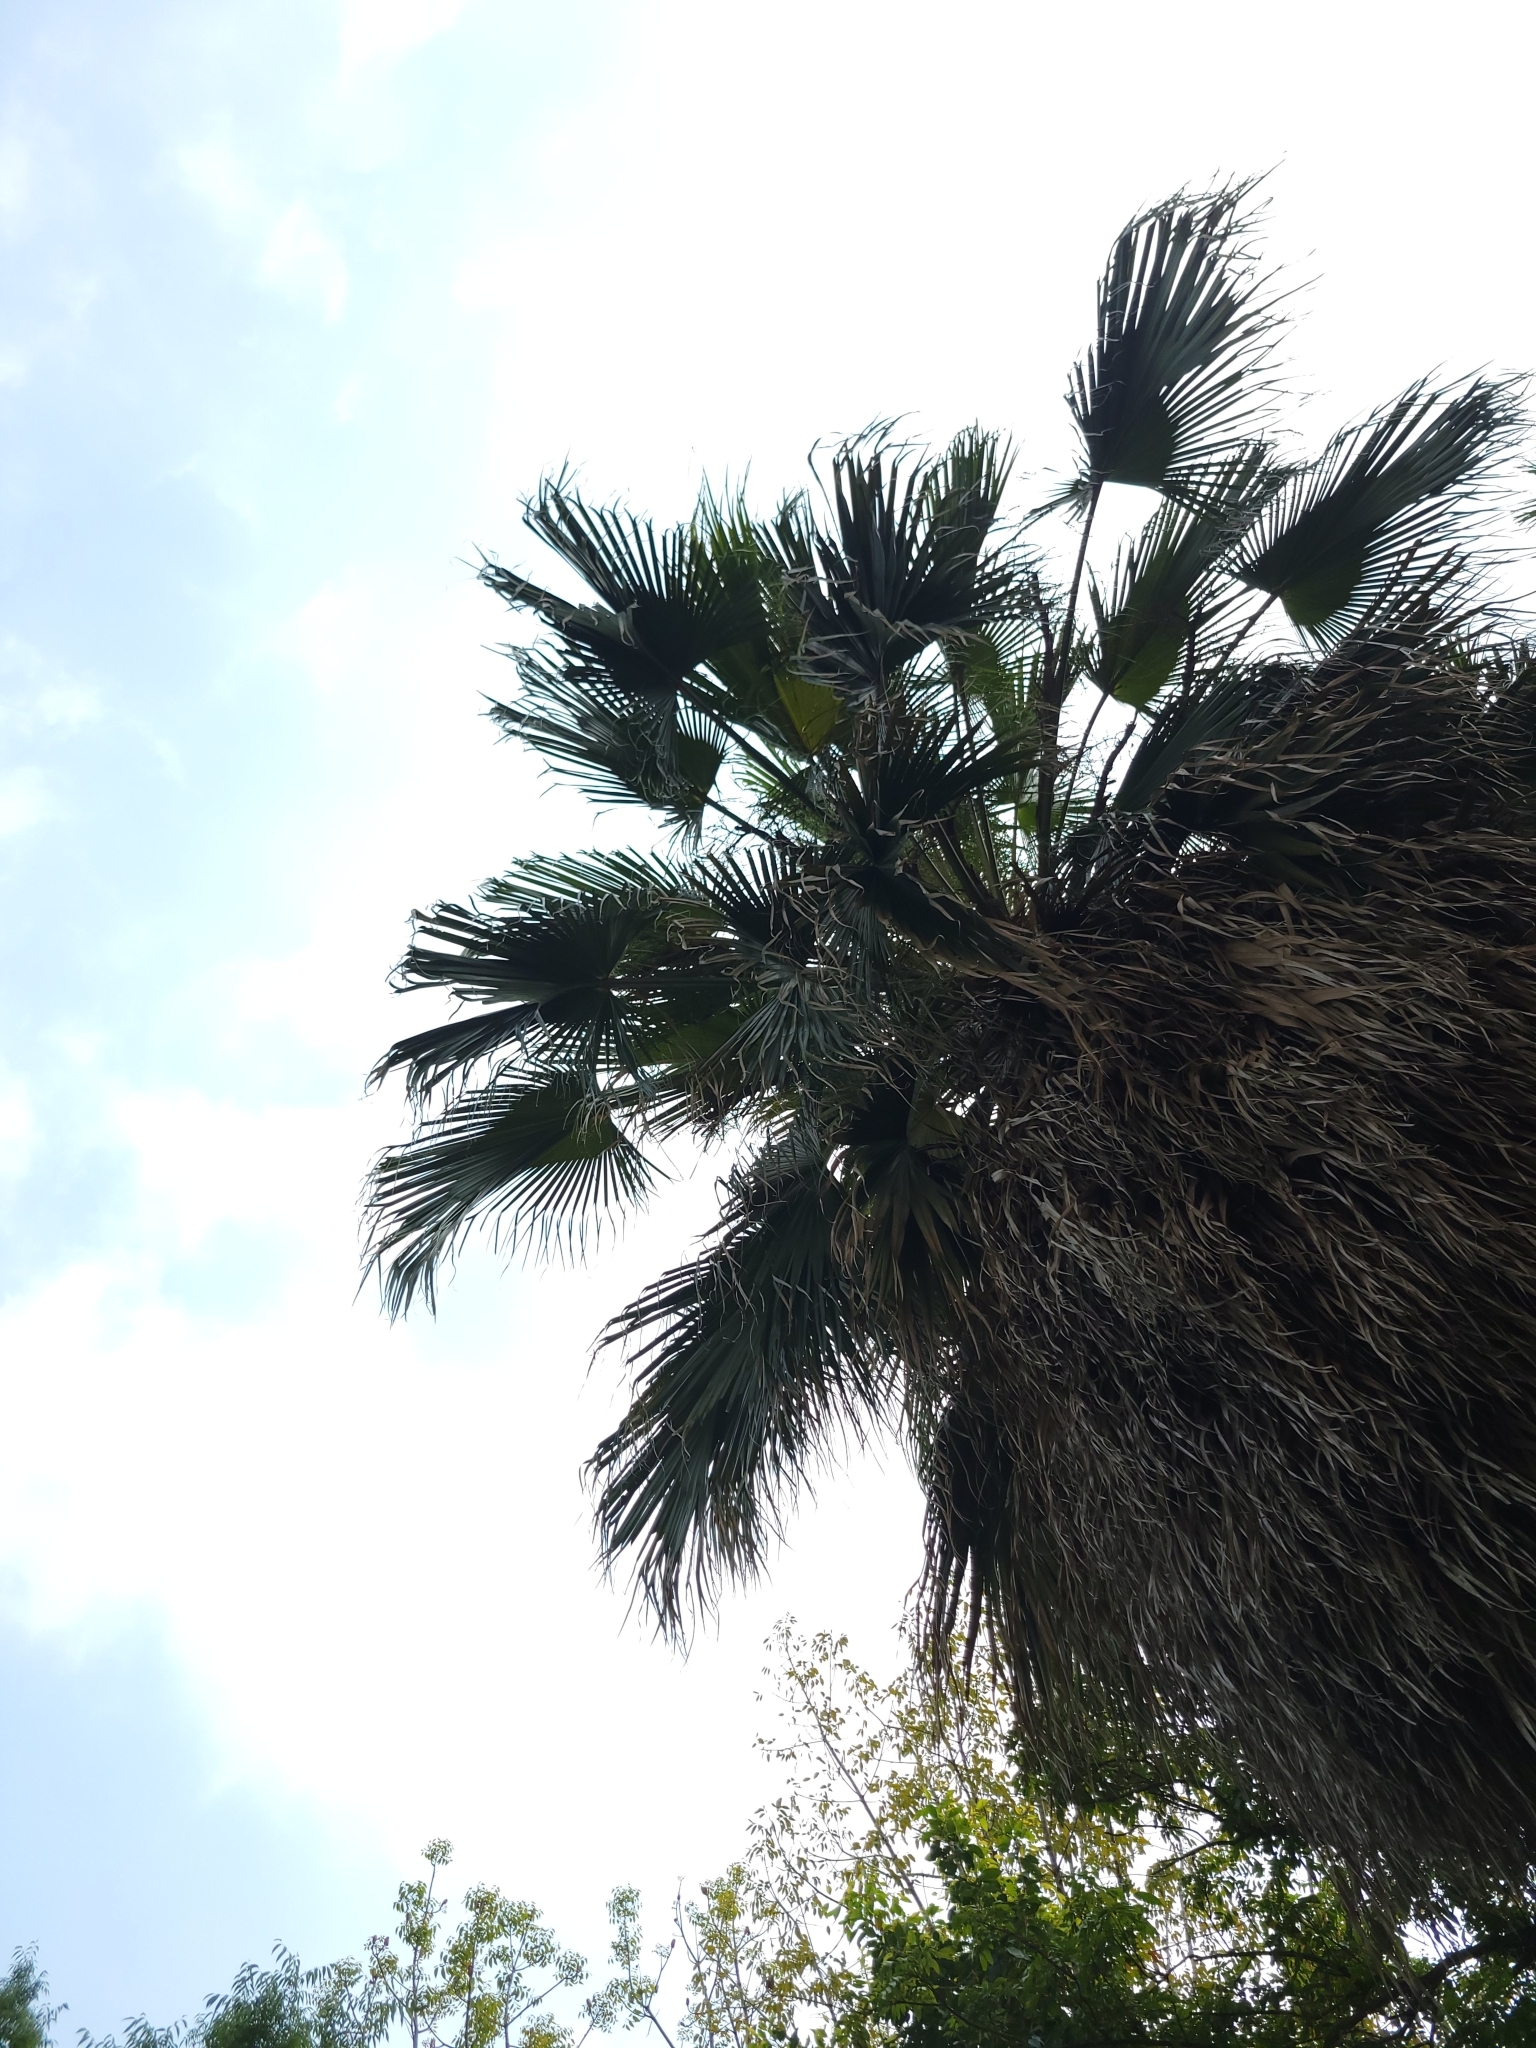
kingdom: Plantae
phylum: Tracheophyta
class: Liliopsida
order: Arecales
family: Arecaceae
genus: Livistona
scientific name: Livistona chinensis
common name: Fountain palm
